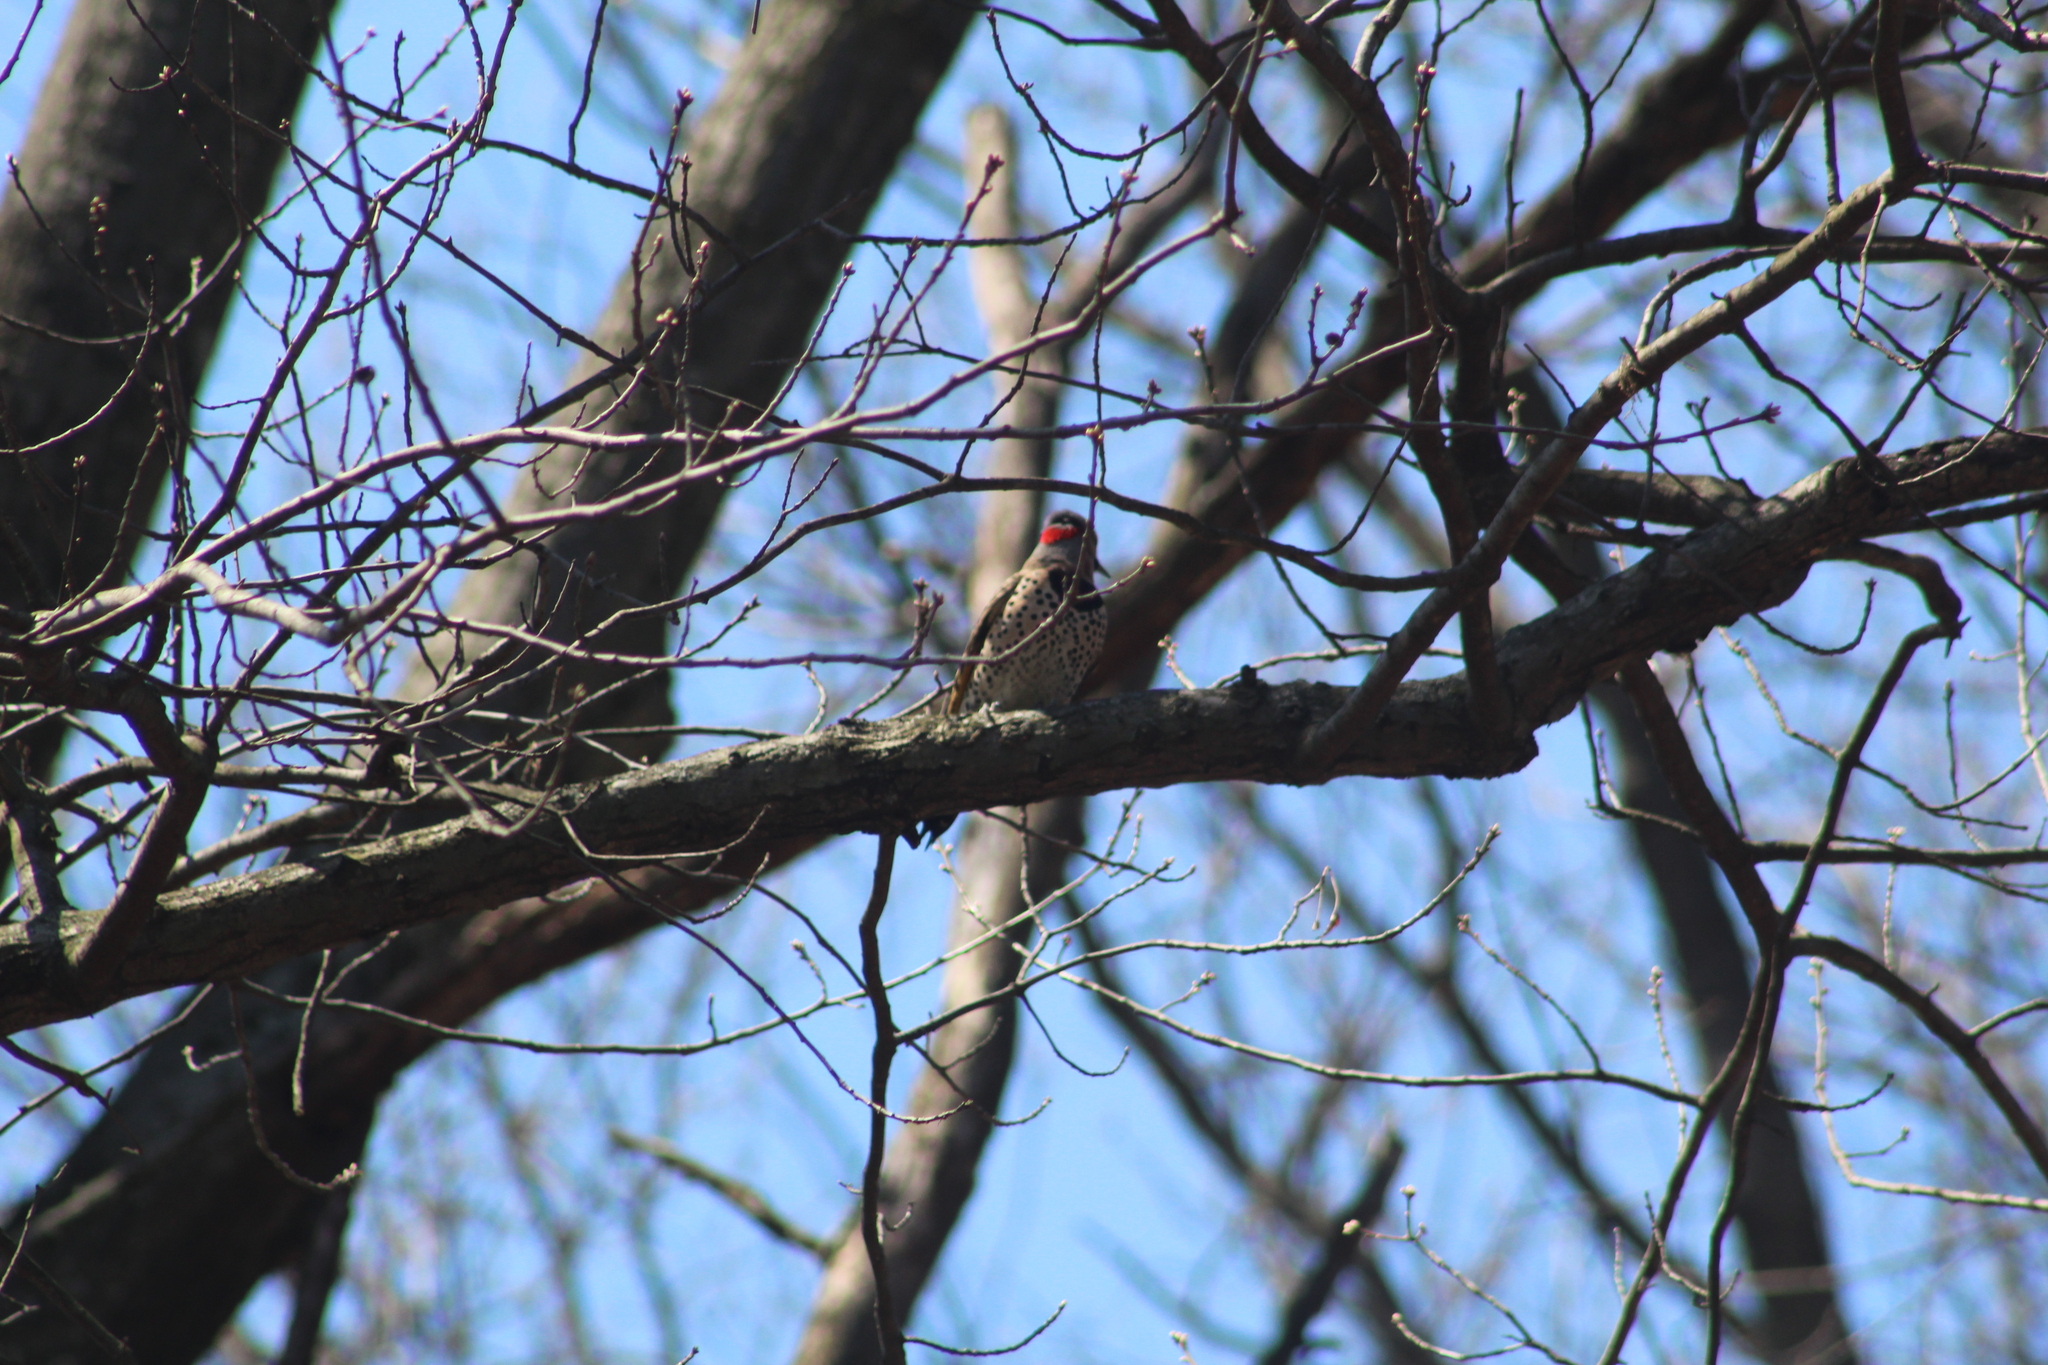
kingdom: Animalia
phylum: Chordata
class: Aves
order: Piciformes
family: Picidae
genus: Colaptes
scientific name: Colaptes auratus
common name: Northern flicker
